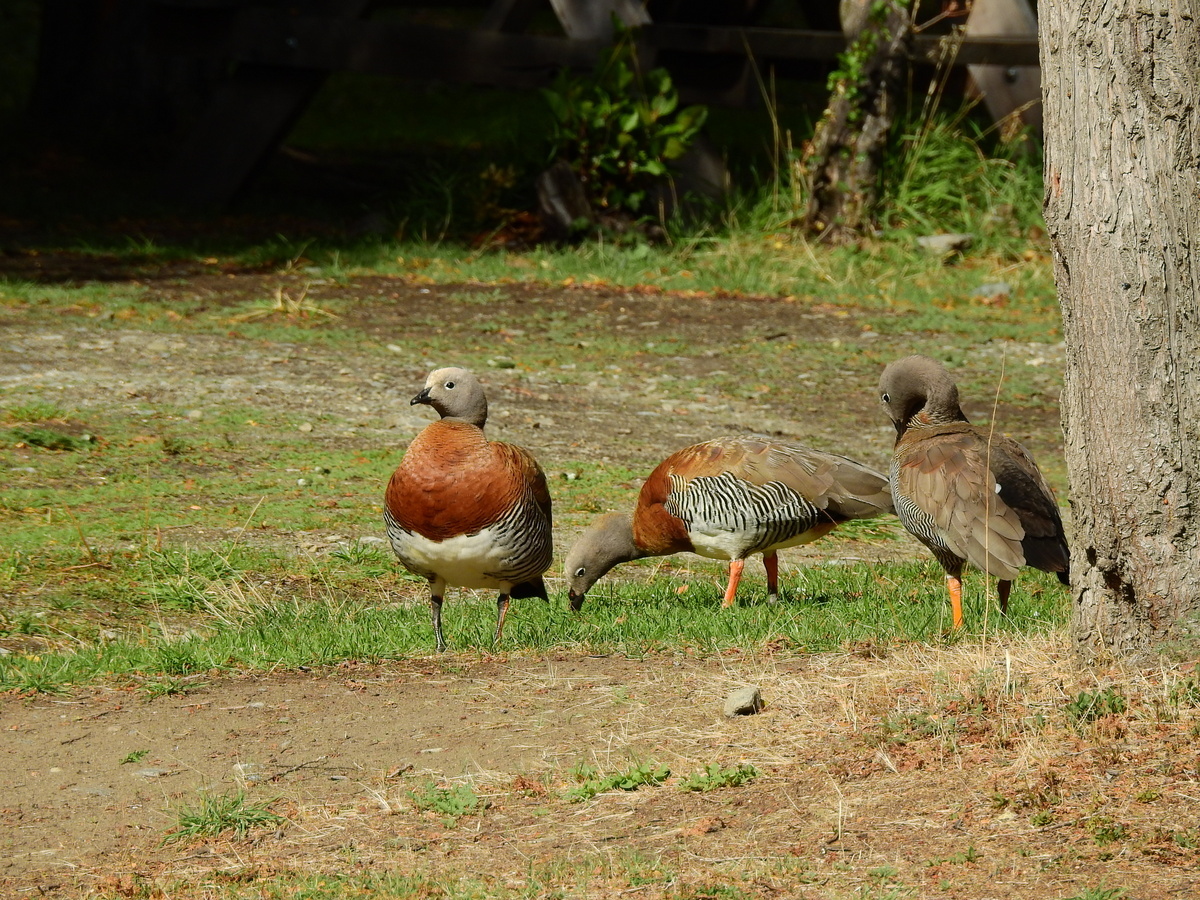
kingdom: Animalia
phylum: Chordata
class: Aves
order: Anseriformes
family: Anatidae
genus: Chloephaga
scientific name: Chloephaga poliocephala
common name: Ashy-headed goose
